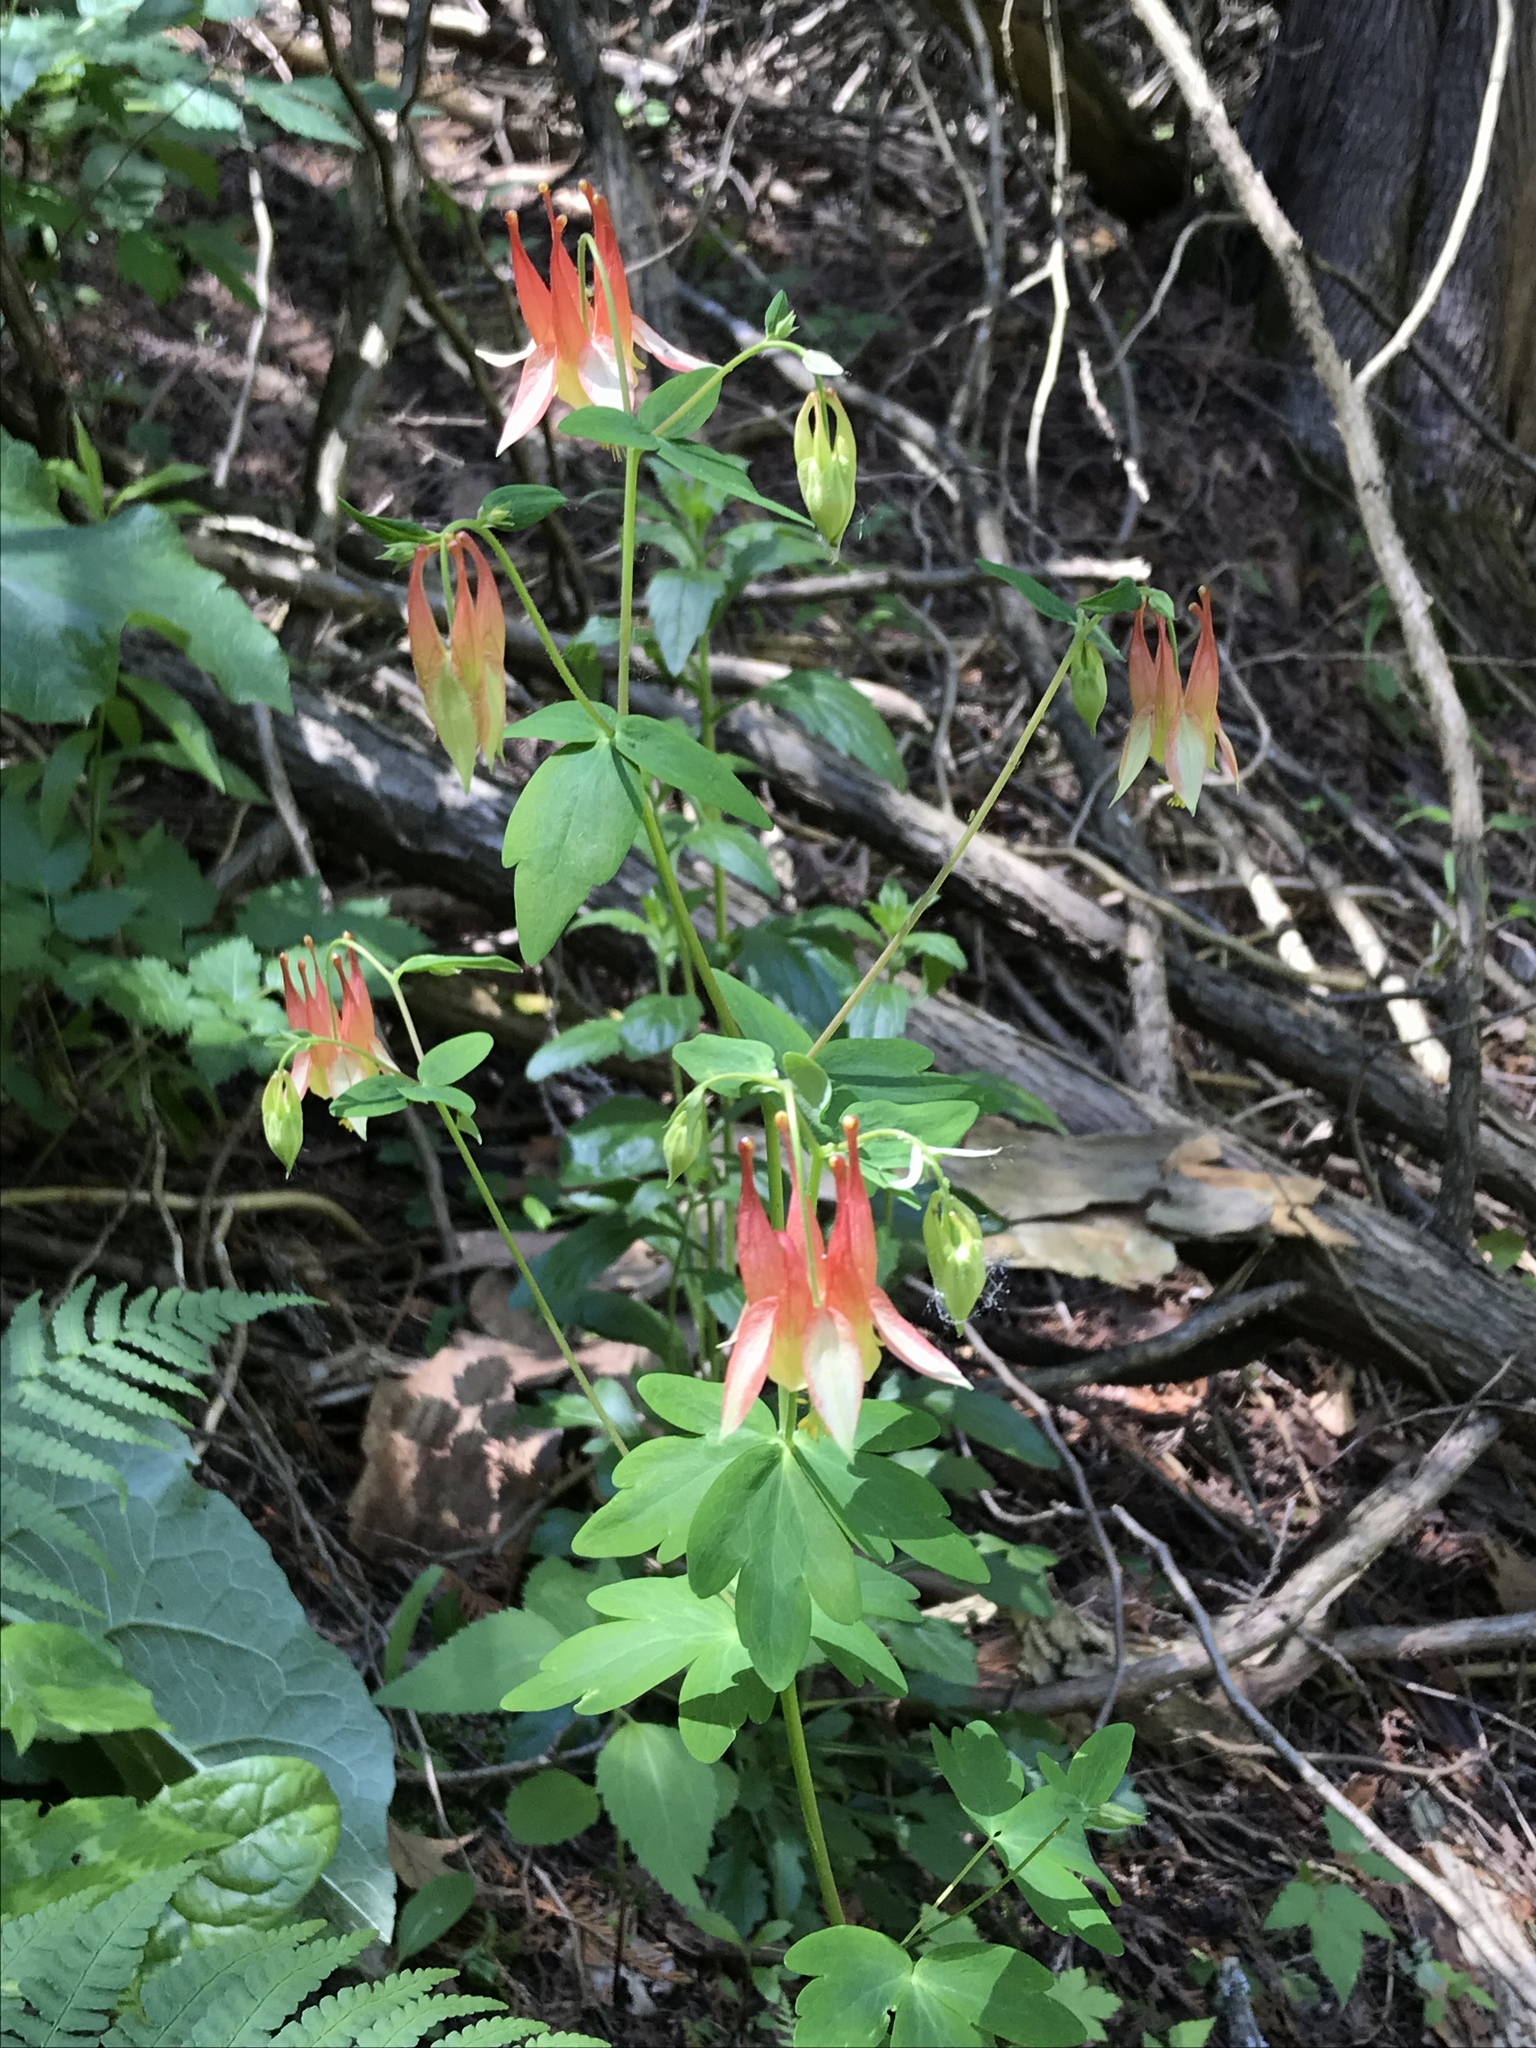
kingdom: Plantae
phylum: Tracheophyta
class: Magnoliopsida
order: Ranunculales
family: Ranunculaceae
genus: Aquilegia
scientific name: Aquilegia canadensis
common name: American columbine
